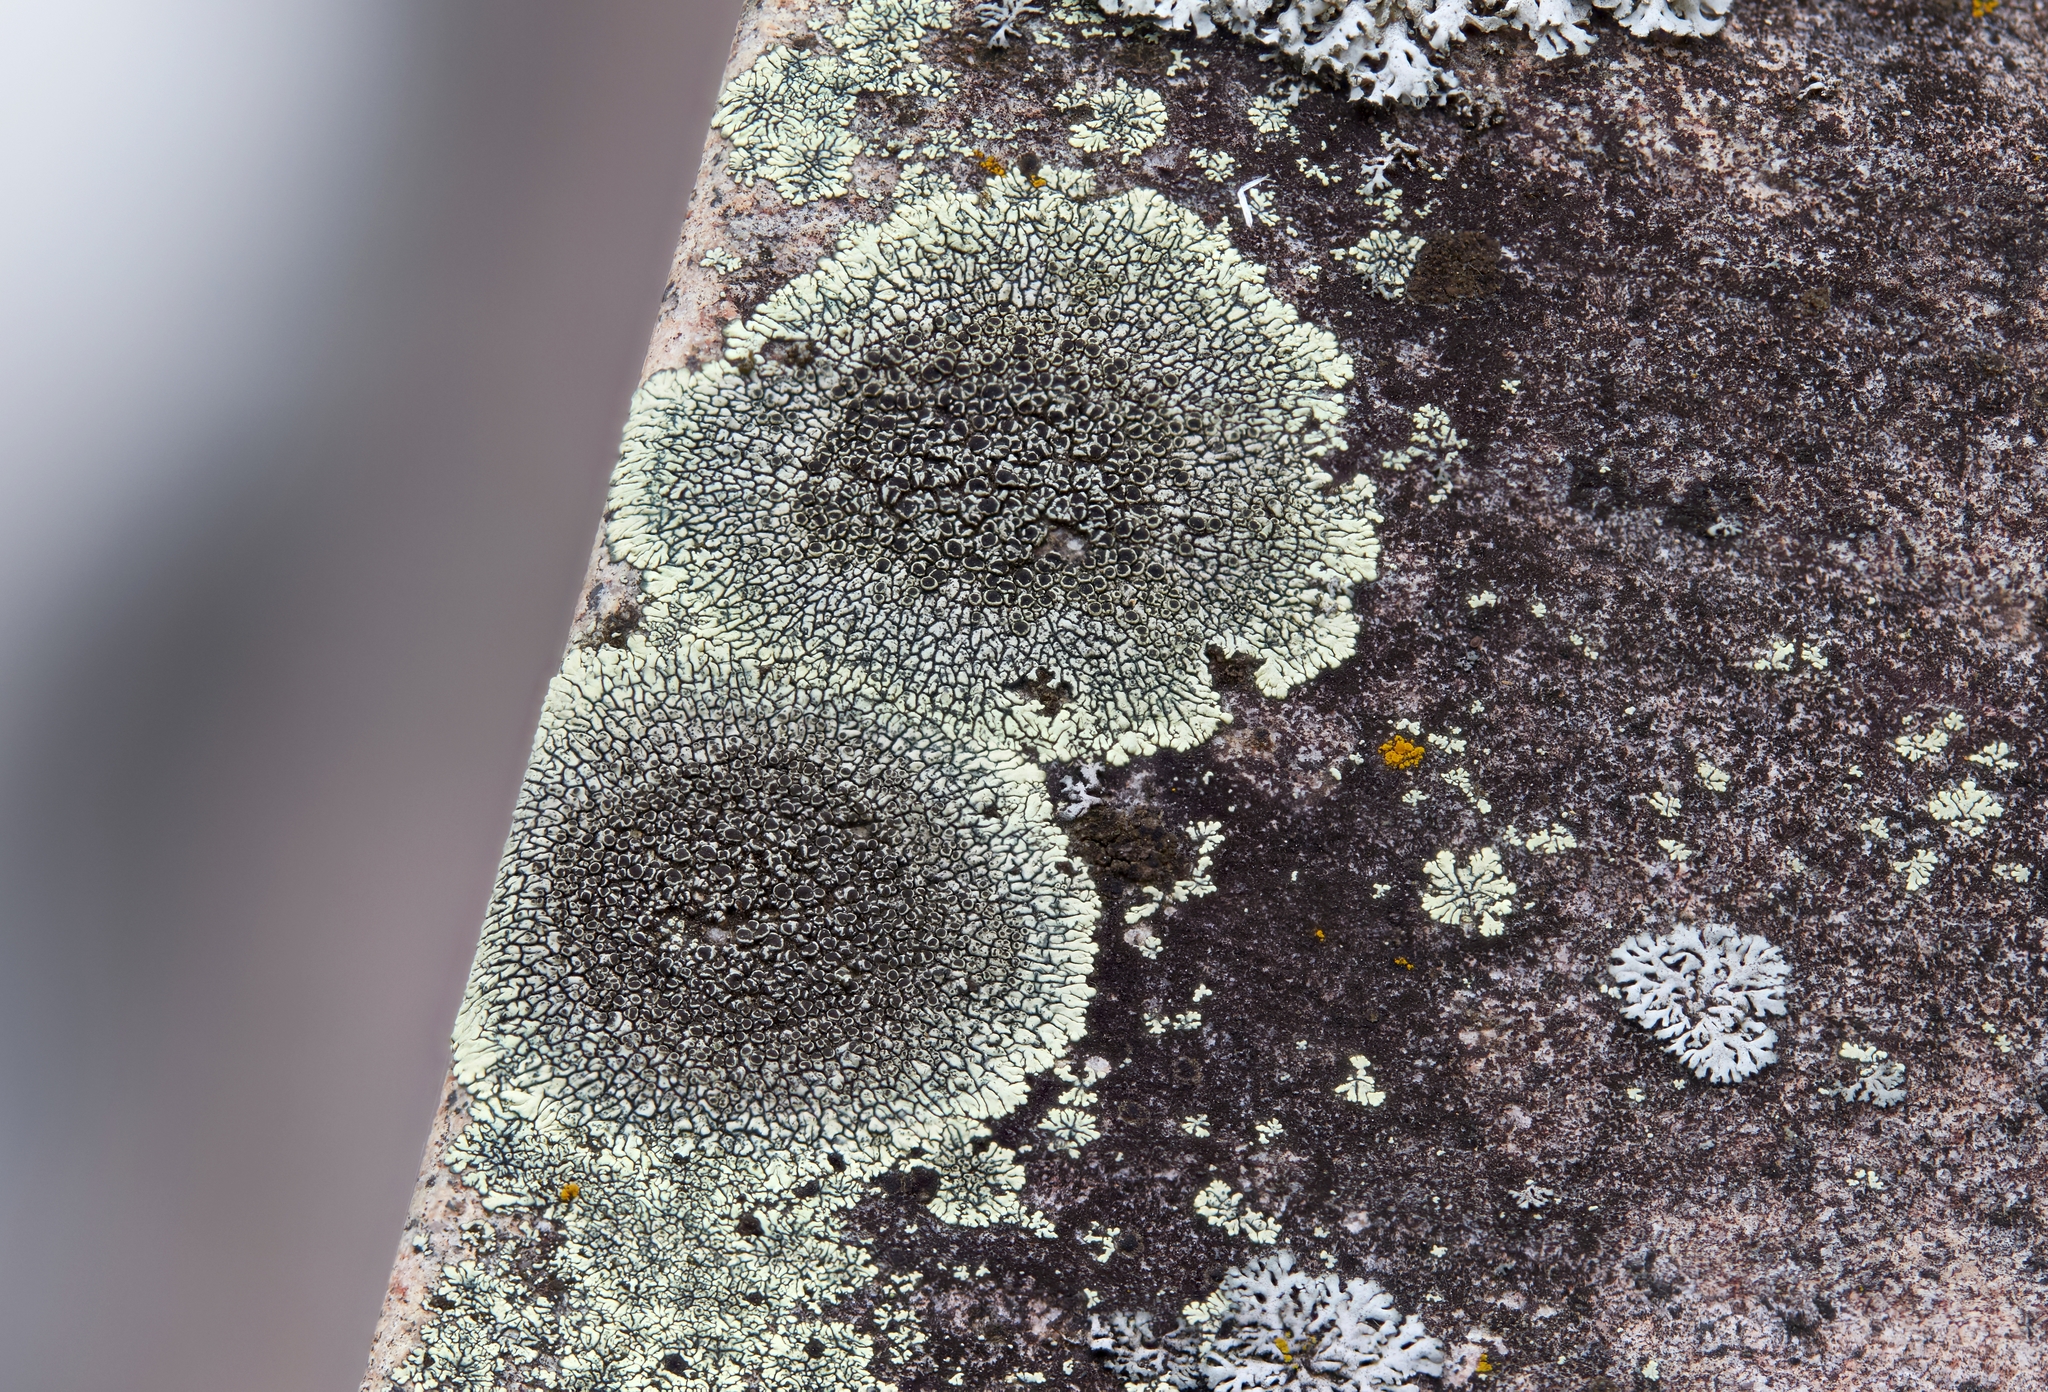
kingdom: Fungi
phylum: Ascomycota
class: Lecanoromycetes
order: Caliciales
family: Caliciaceae
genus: Dimelaena
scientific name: Dimelaena oreina
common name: Golden moonglow lichen
